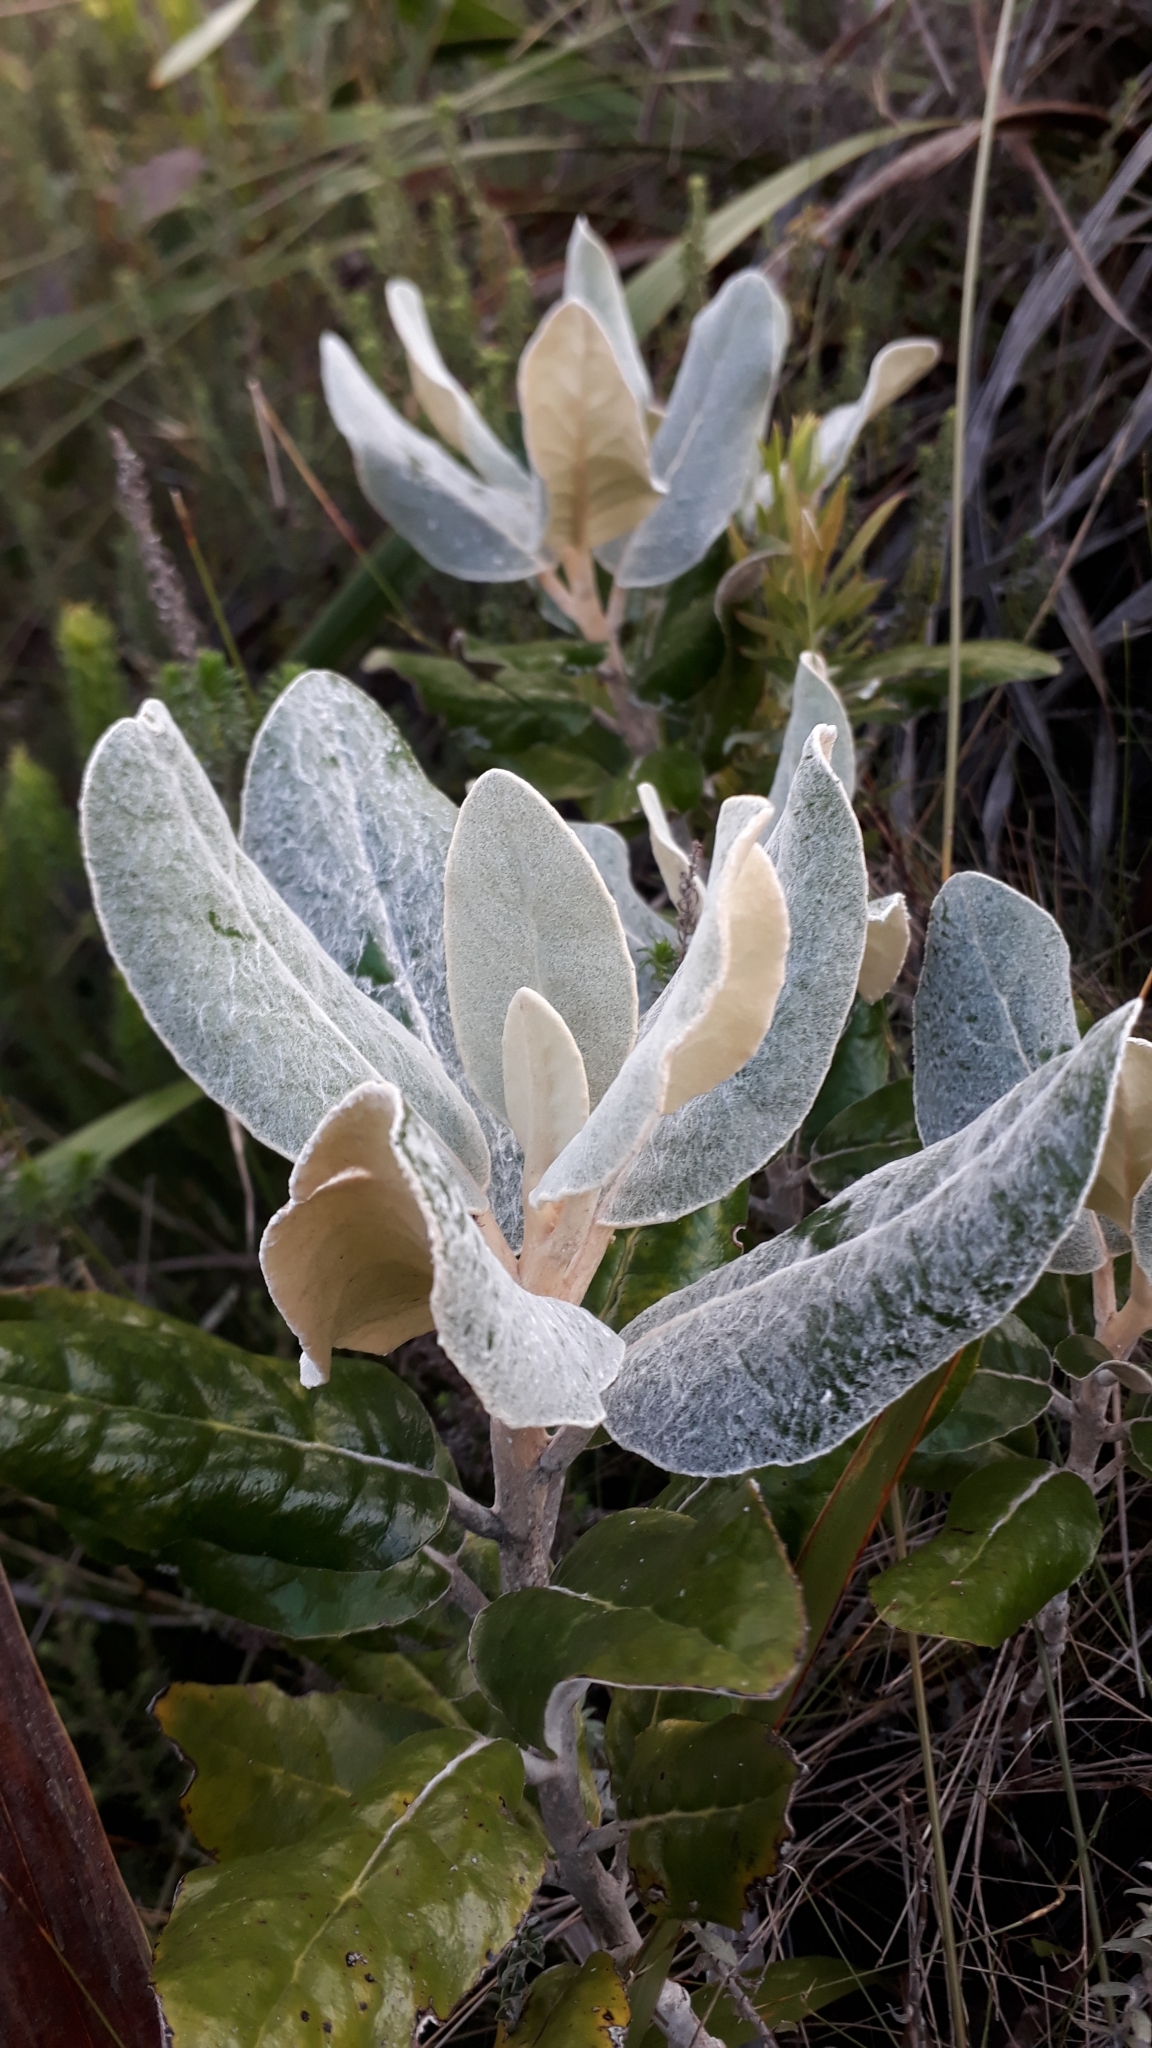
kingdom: Plantae
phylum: Tracheophyta
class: Magnoliopsida
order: Asterales
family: Asteraceae
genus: Capelio
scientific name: Capelio tabularis
